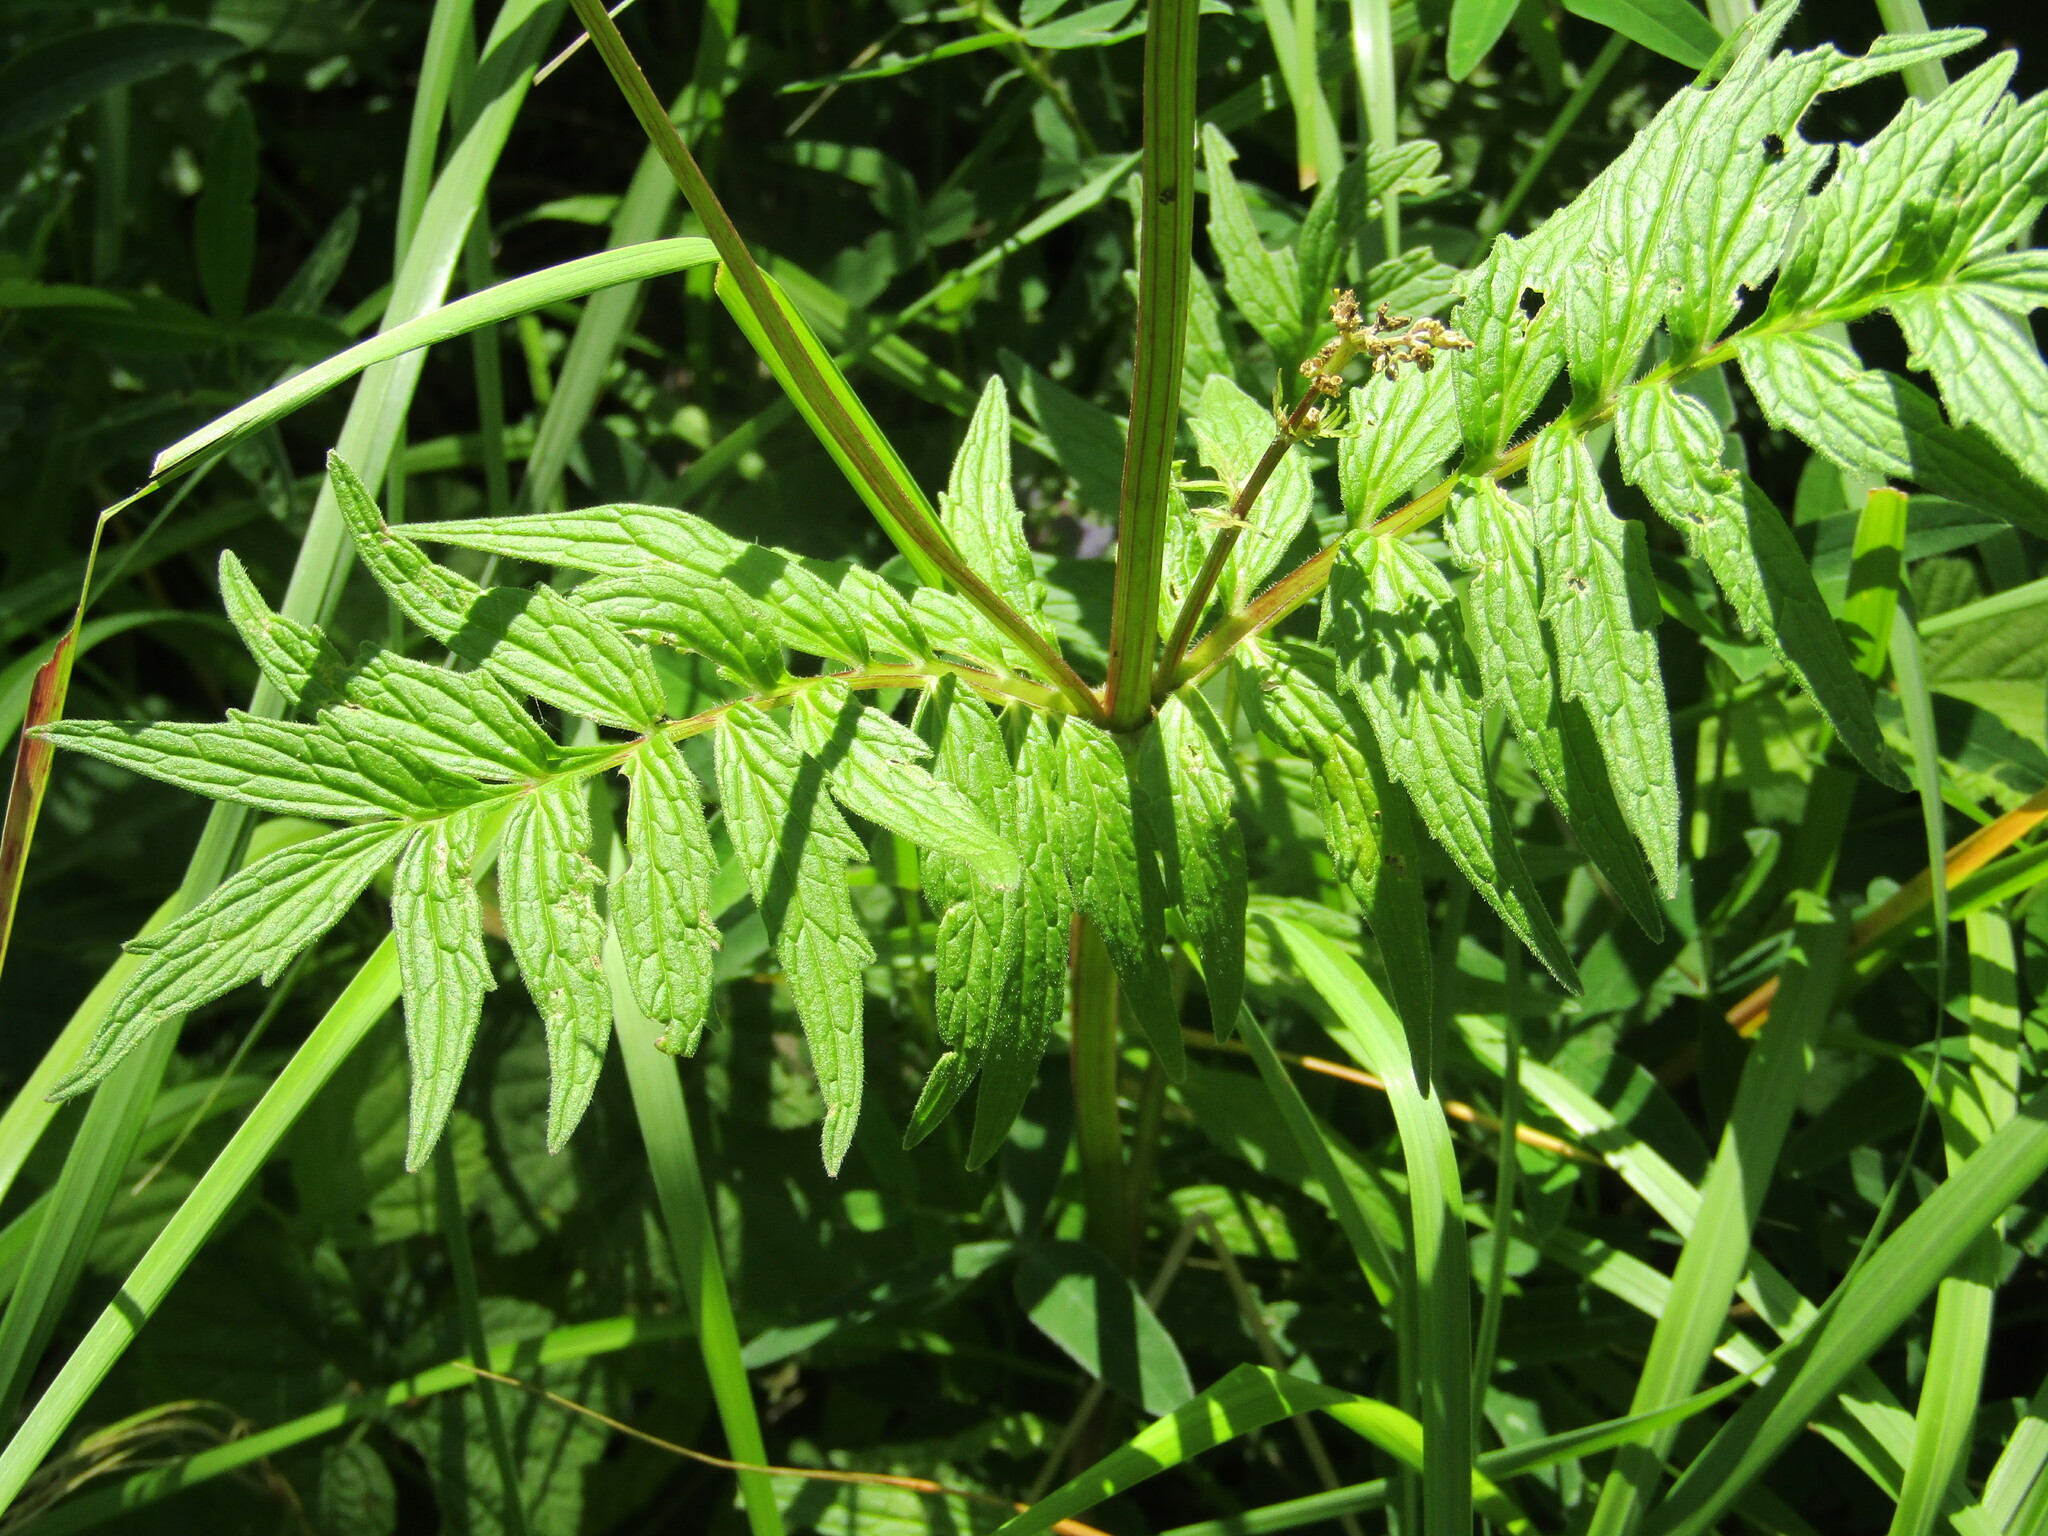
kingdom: Plantae
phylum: Tracheophyta
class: Magnoliopsida
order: Dipsacales
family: Caprifoliaceae
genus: Valeriana
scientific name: Valeriana officinalis
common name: Common valerian
